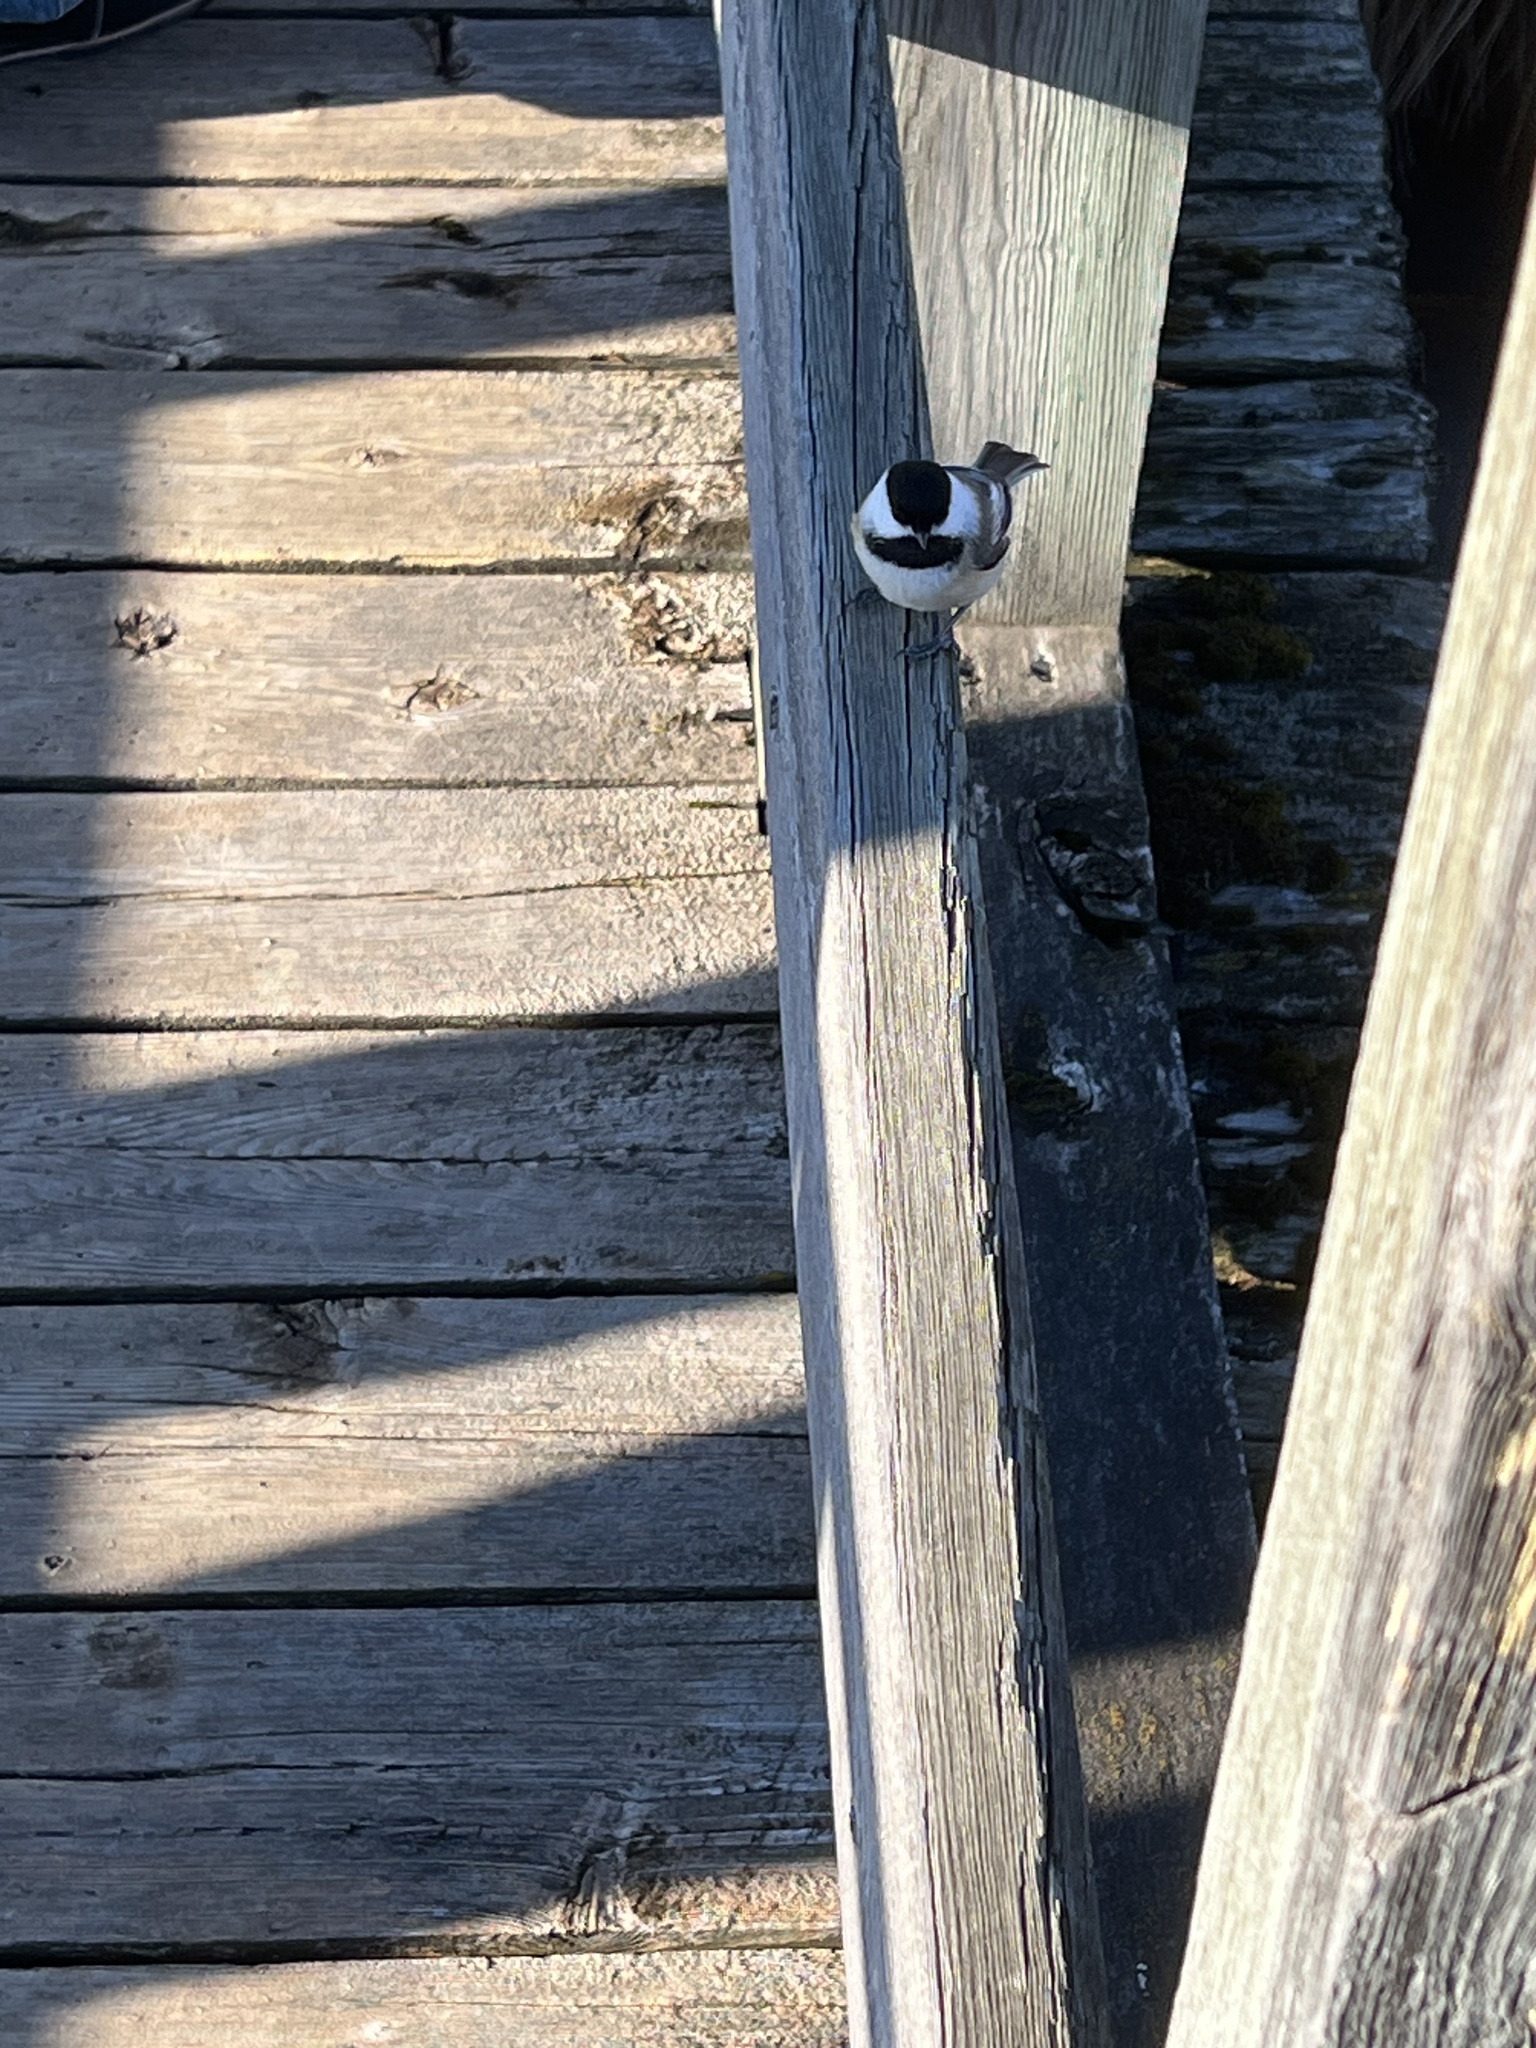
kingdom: Animalia
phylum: Chordata
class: Aves
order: Passeriformes
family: Paridae
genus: Poecile
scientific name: Poecile atricapillus
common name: Black-capped chickadee
